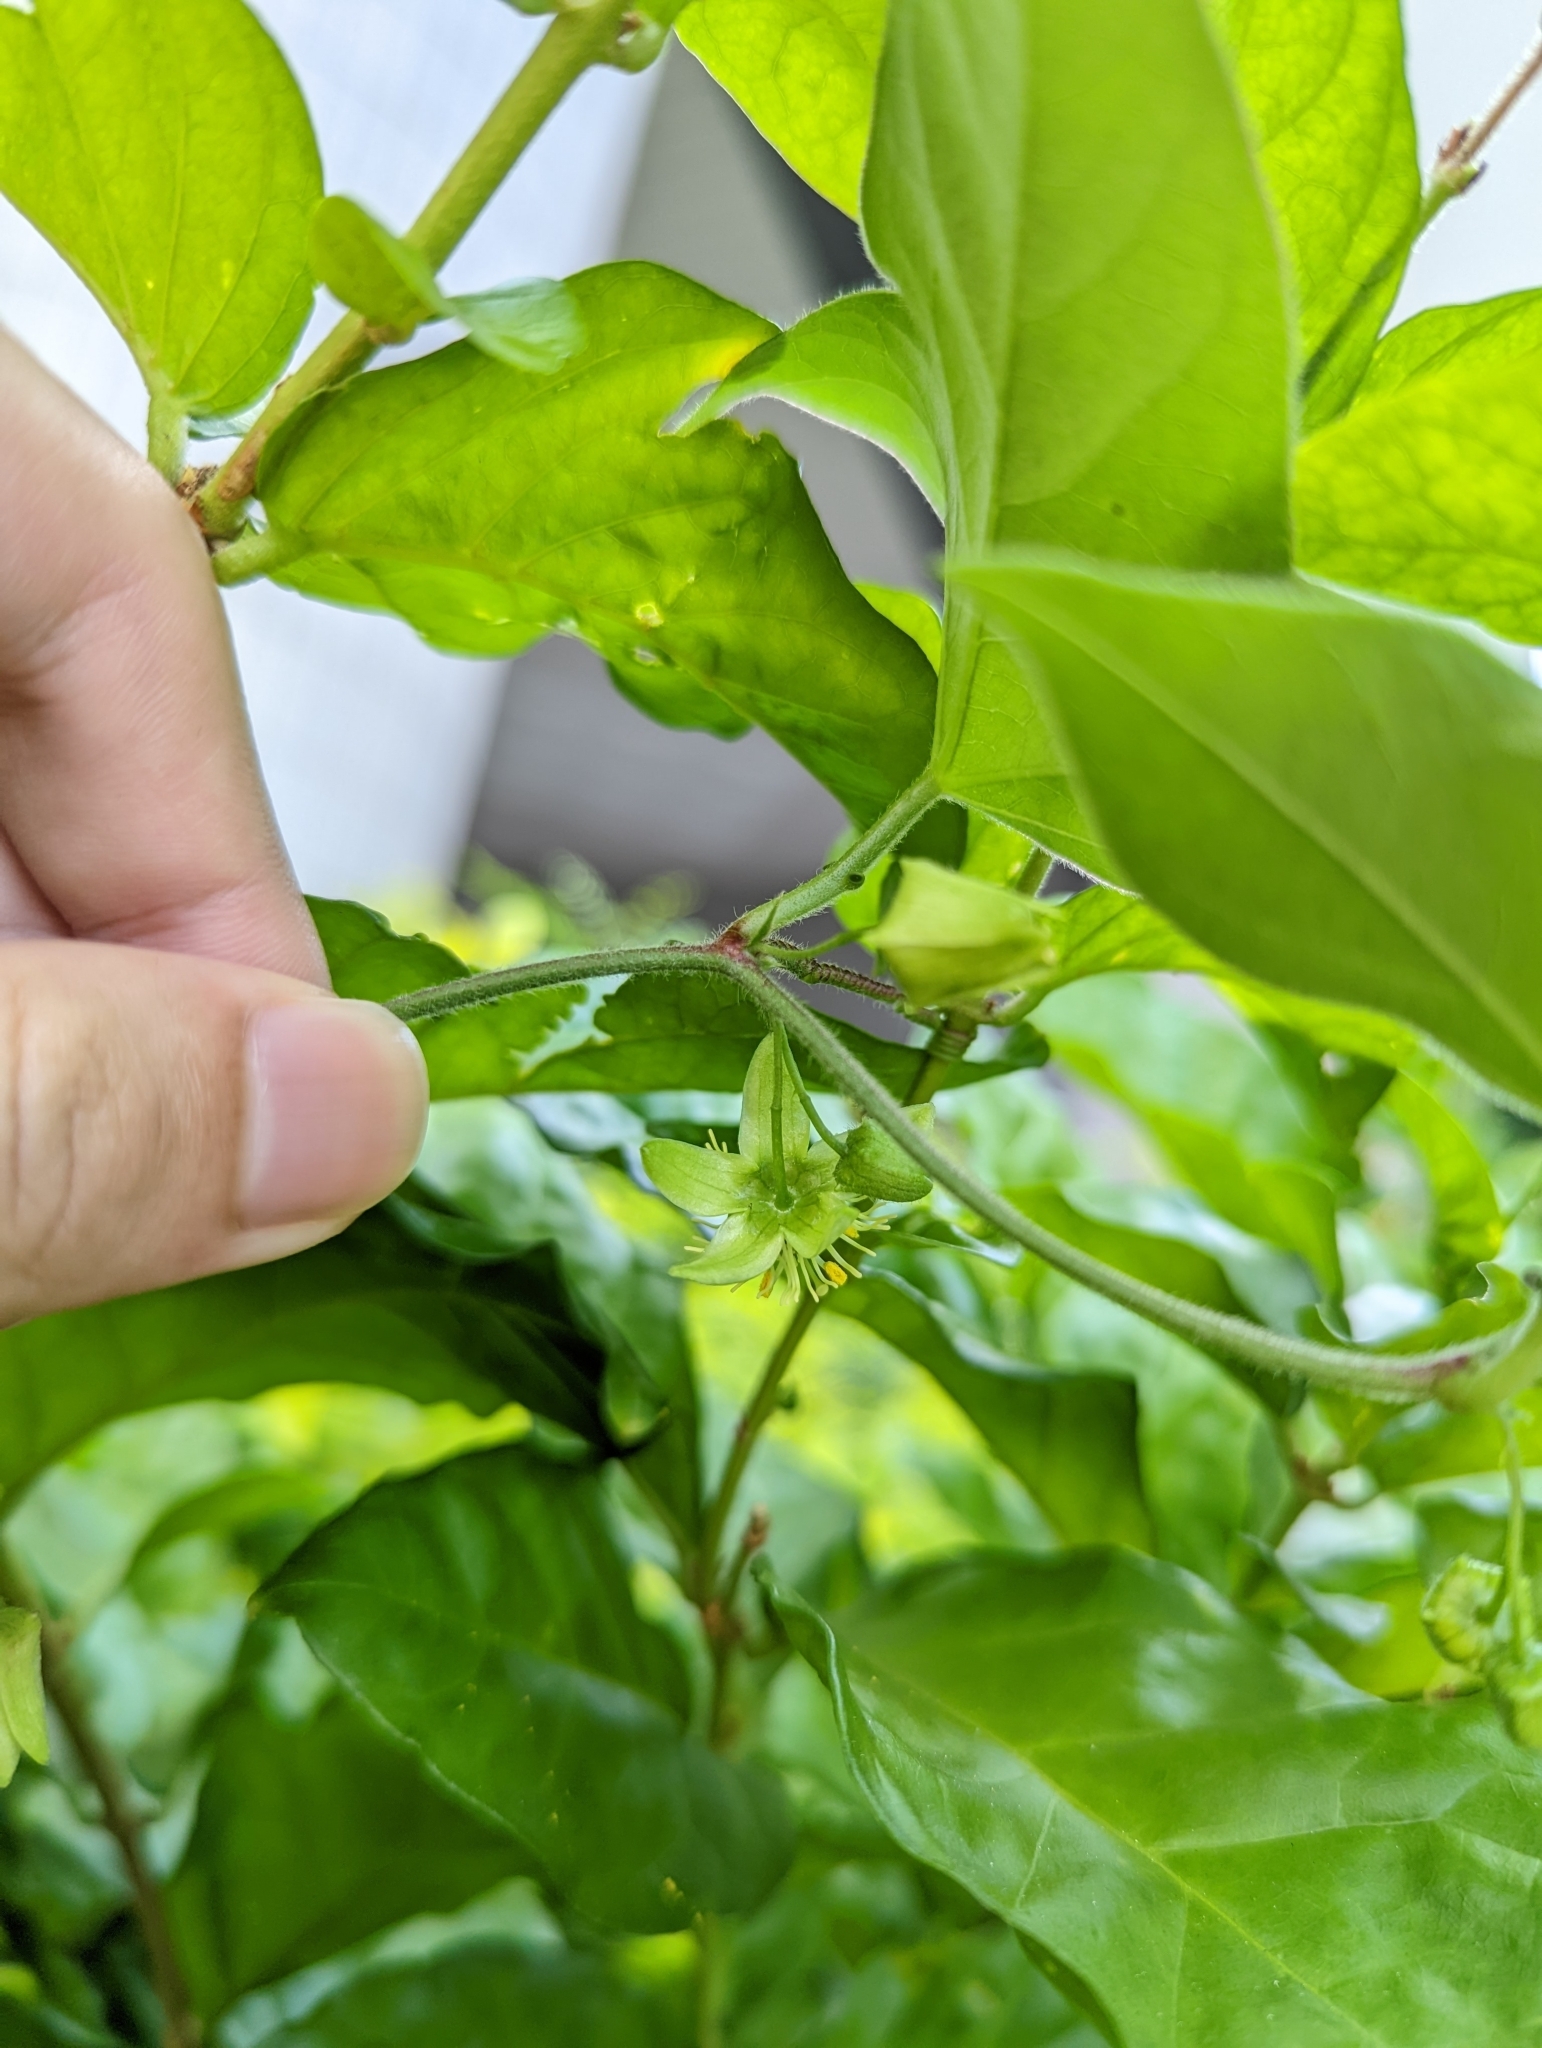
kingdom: Plantae
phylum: Tracheophyta
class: Magnoliopsida
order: Malpighiales
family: Passifloraceae
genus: Passiflora
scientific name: Passiflora suberosa
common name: Wild passionfruit
